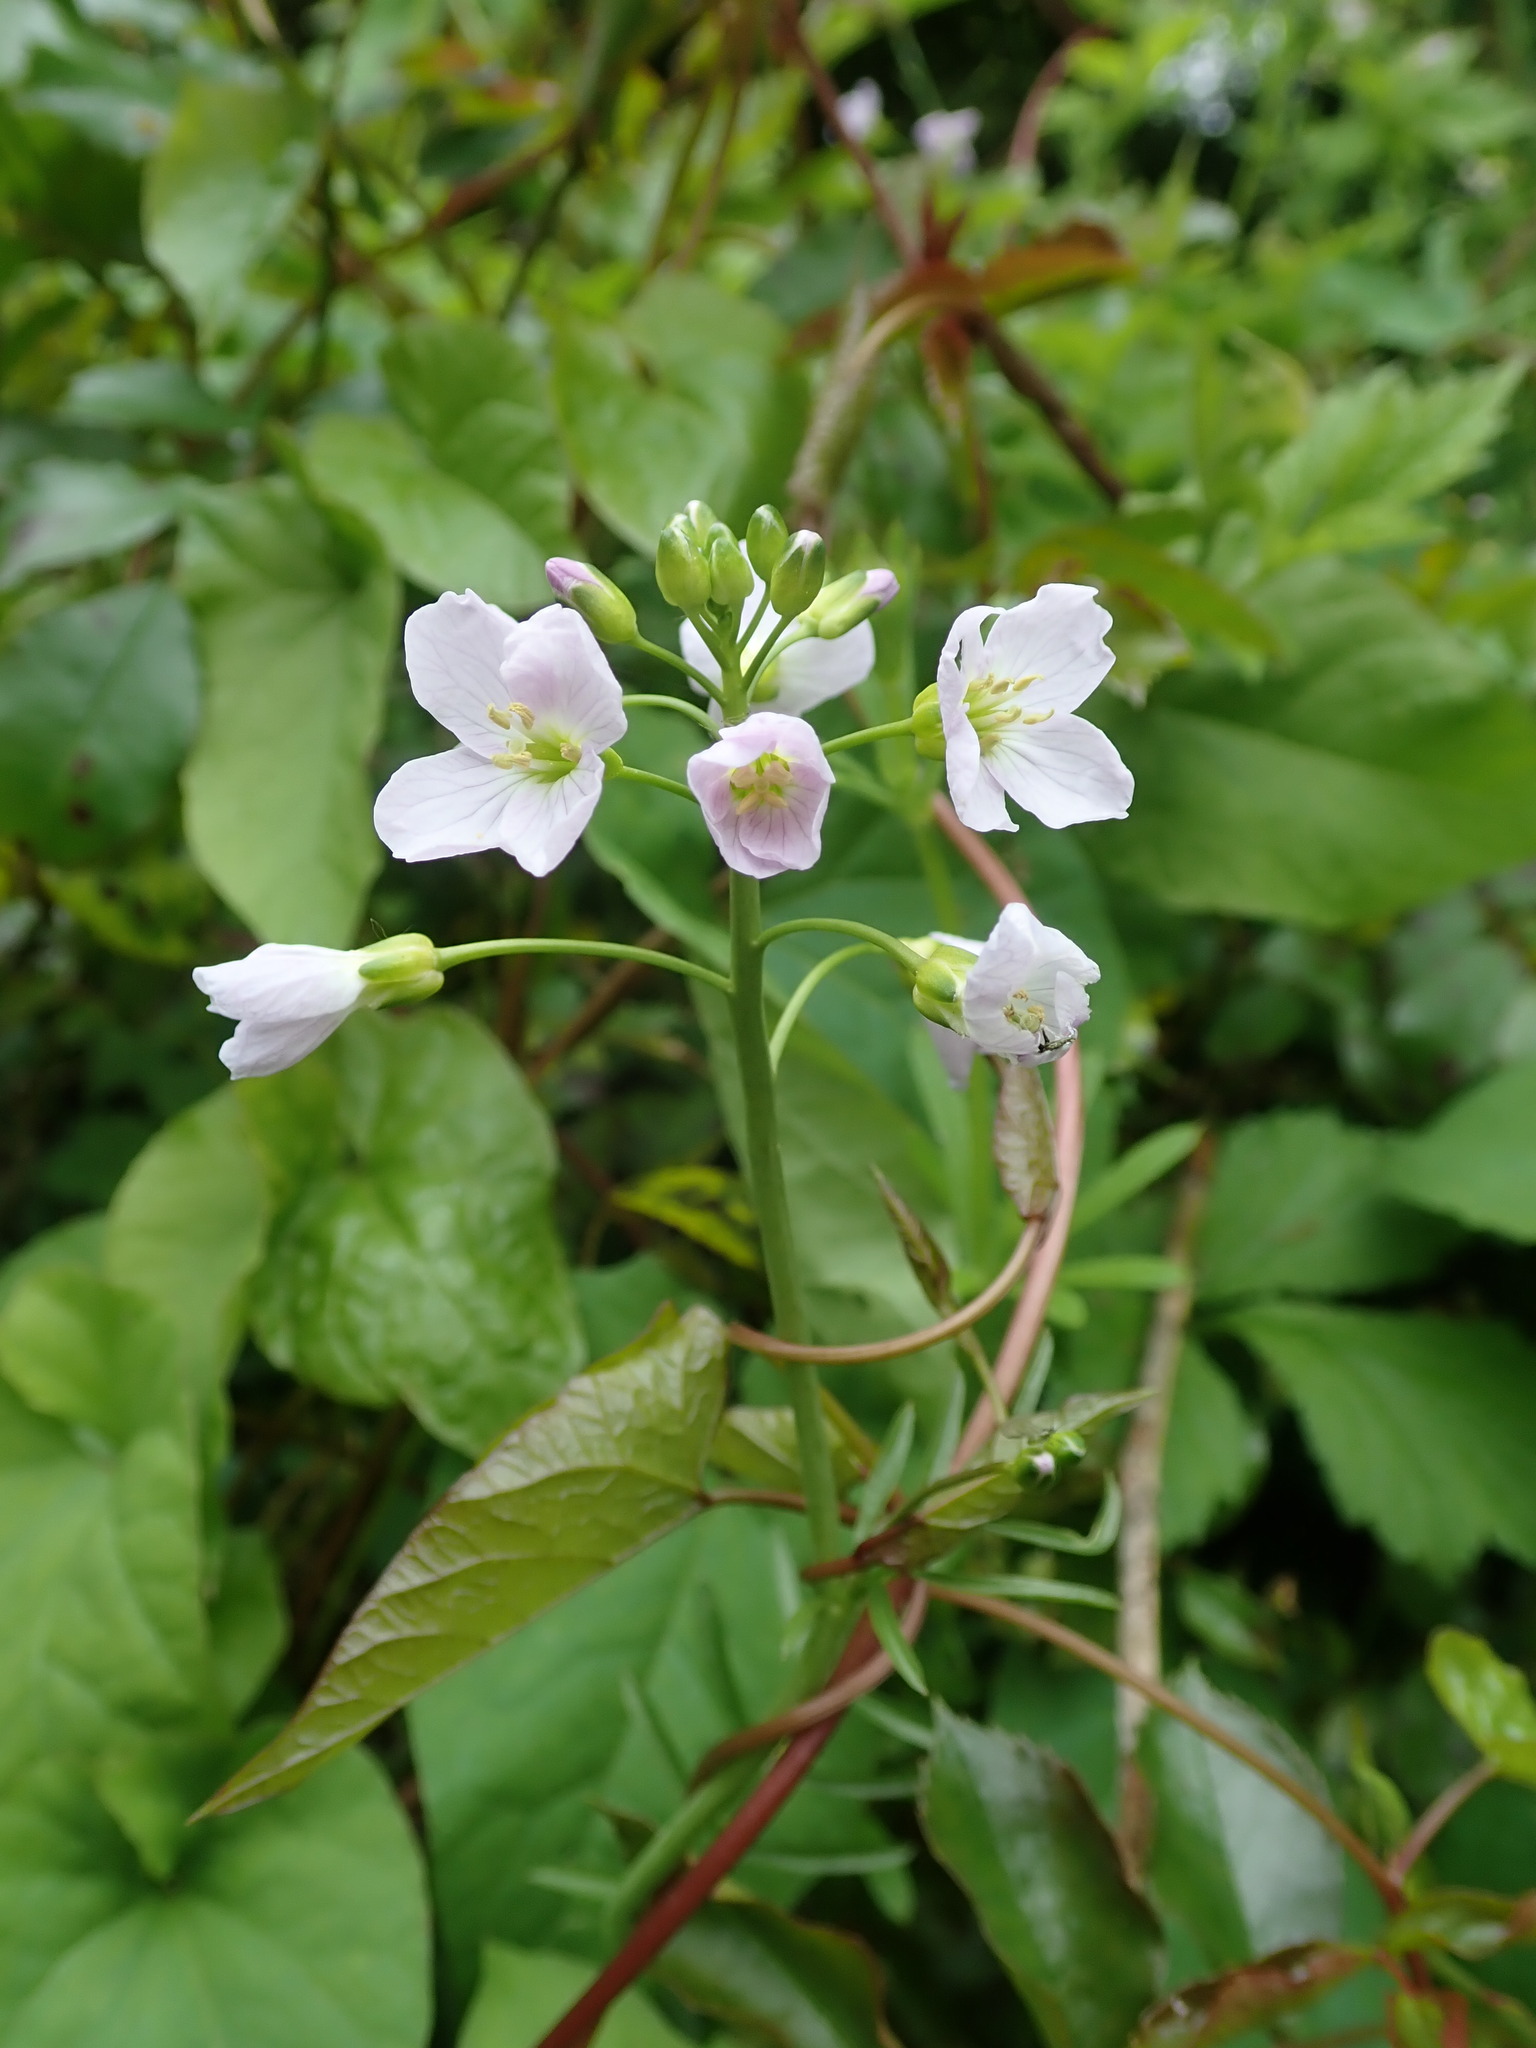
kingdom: Plantae
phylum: Tracheophyta
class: Magnoliopsida
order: Brassicales
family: Brassicaceae
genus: Cardamine
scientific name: Cardamine pratensis
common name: Cuckoo flower
